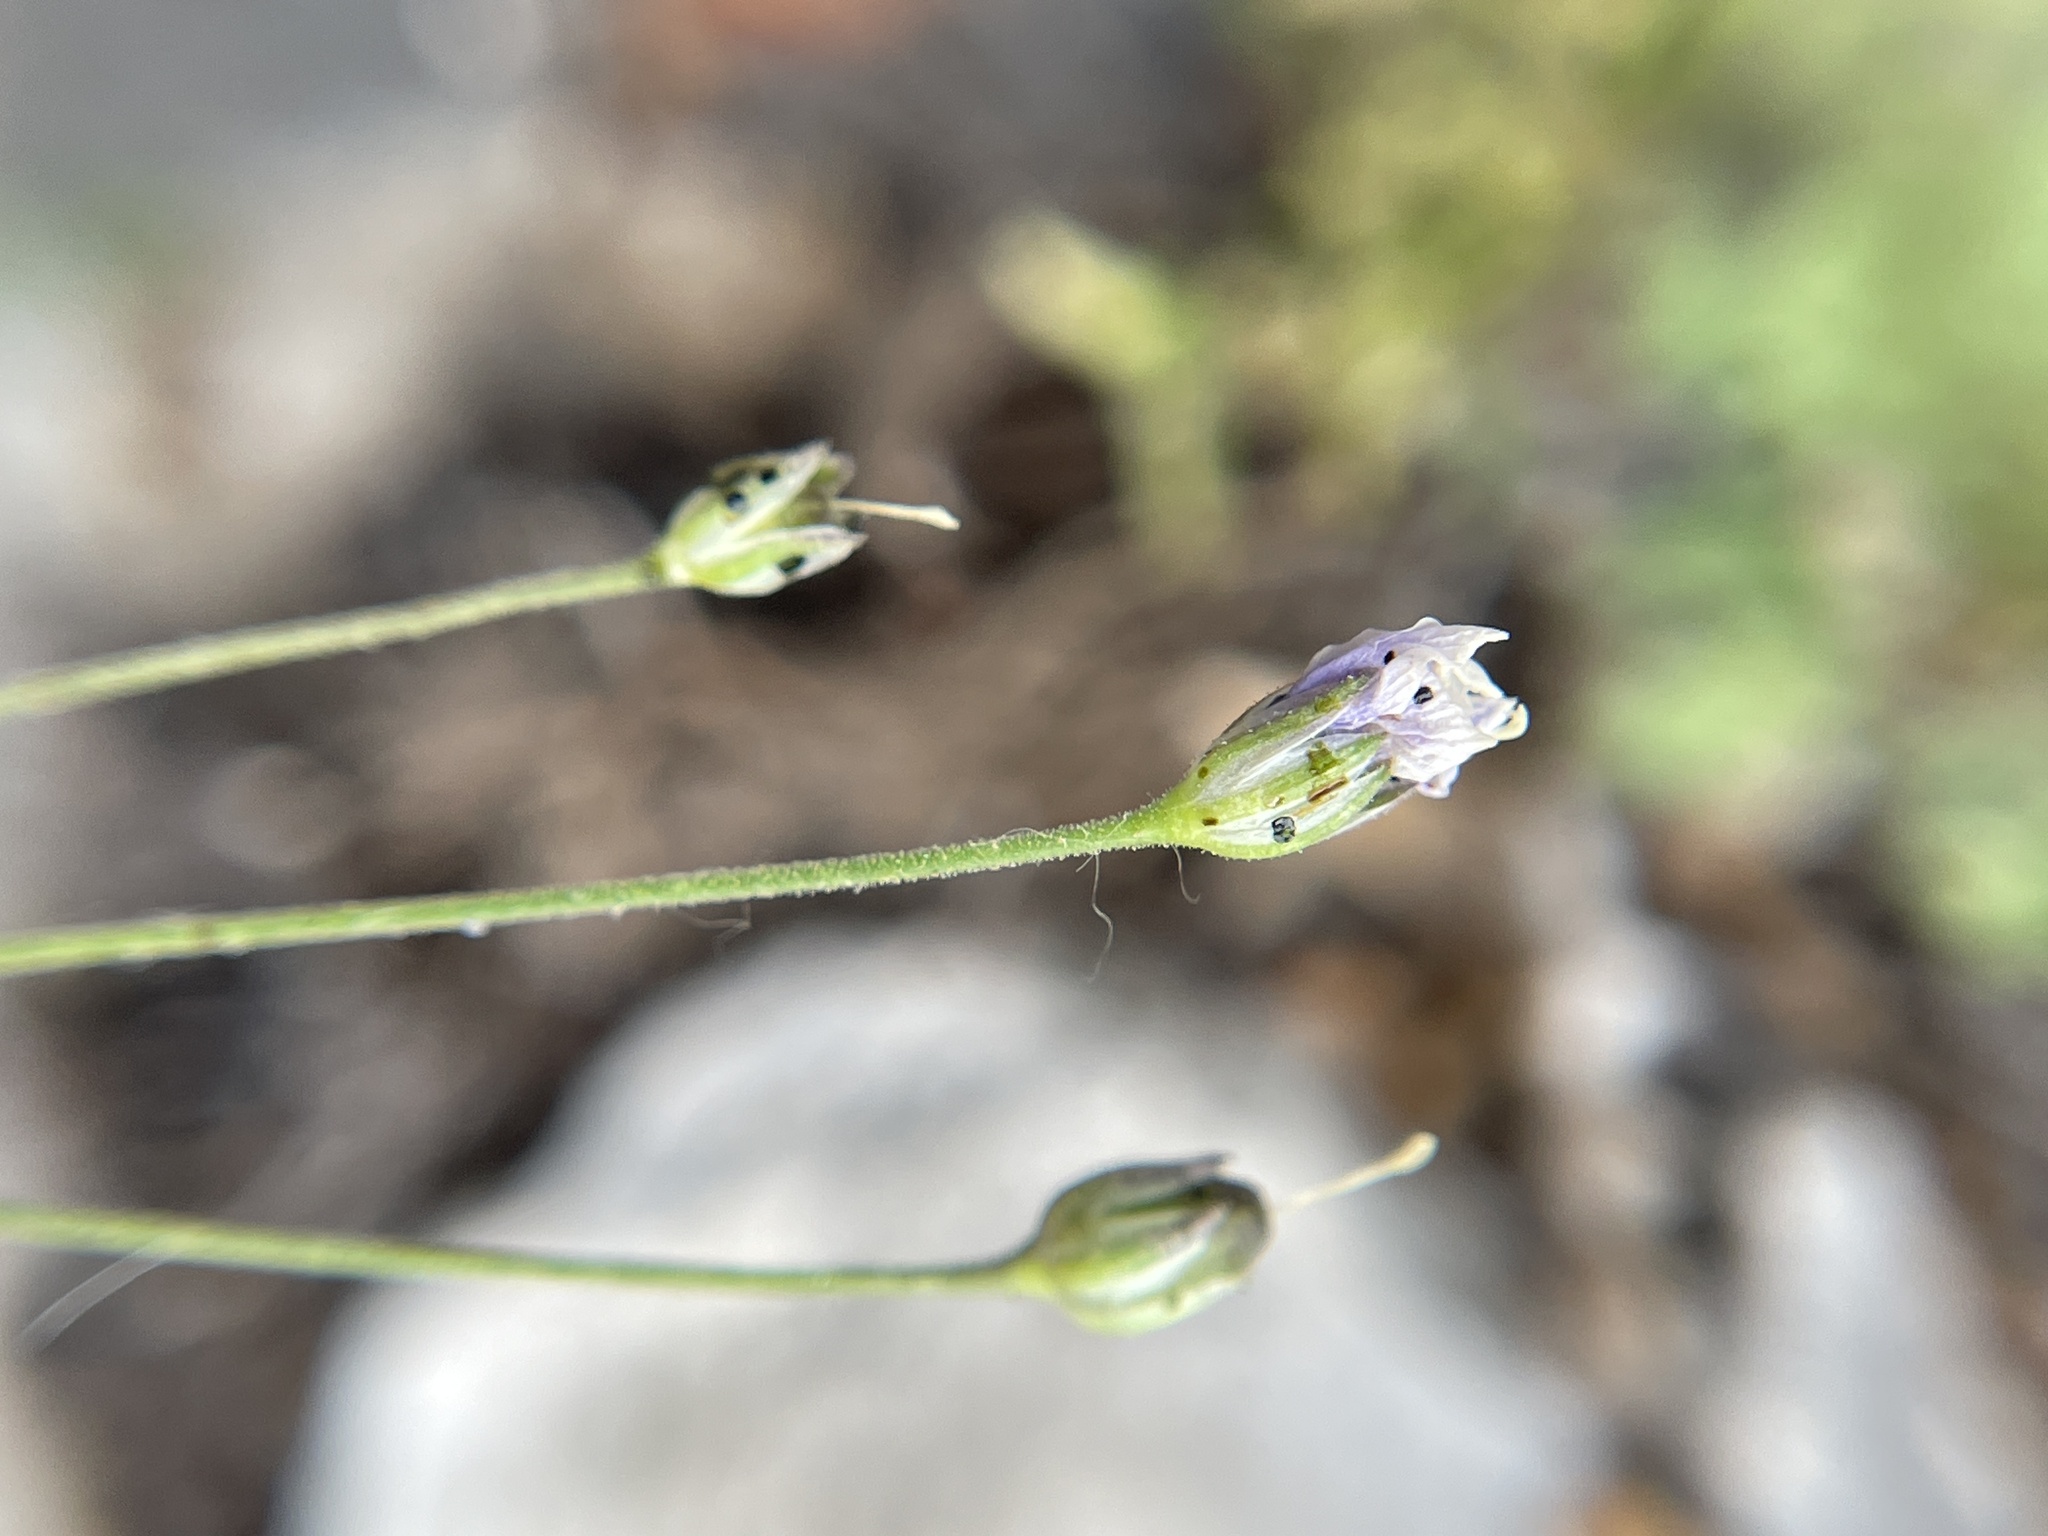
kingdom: Plantae
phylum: Tracheophyta
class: Magnoliopsida
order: Ericales
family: Polemoniaceae
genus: Giliastrum
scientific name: Giliastrum incisum
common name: Splitleaf gilia
